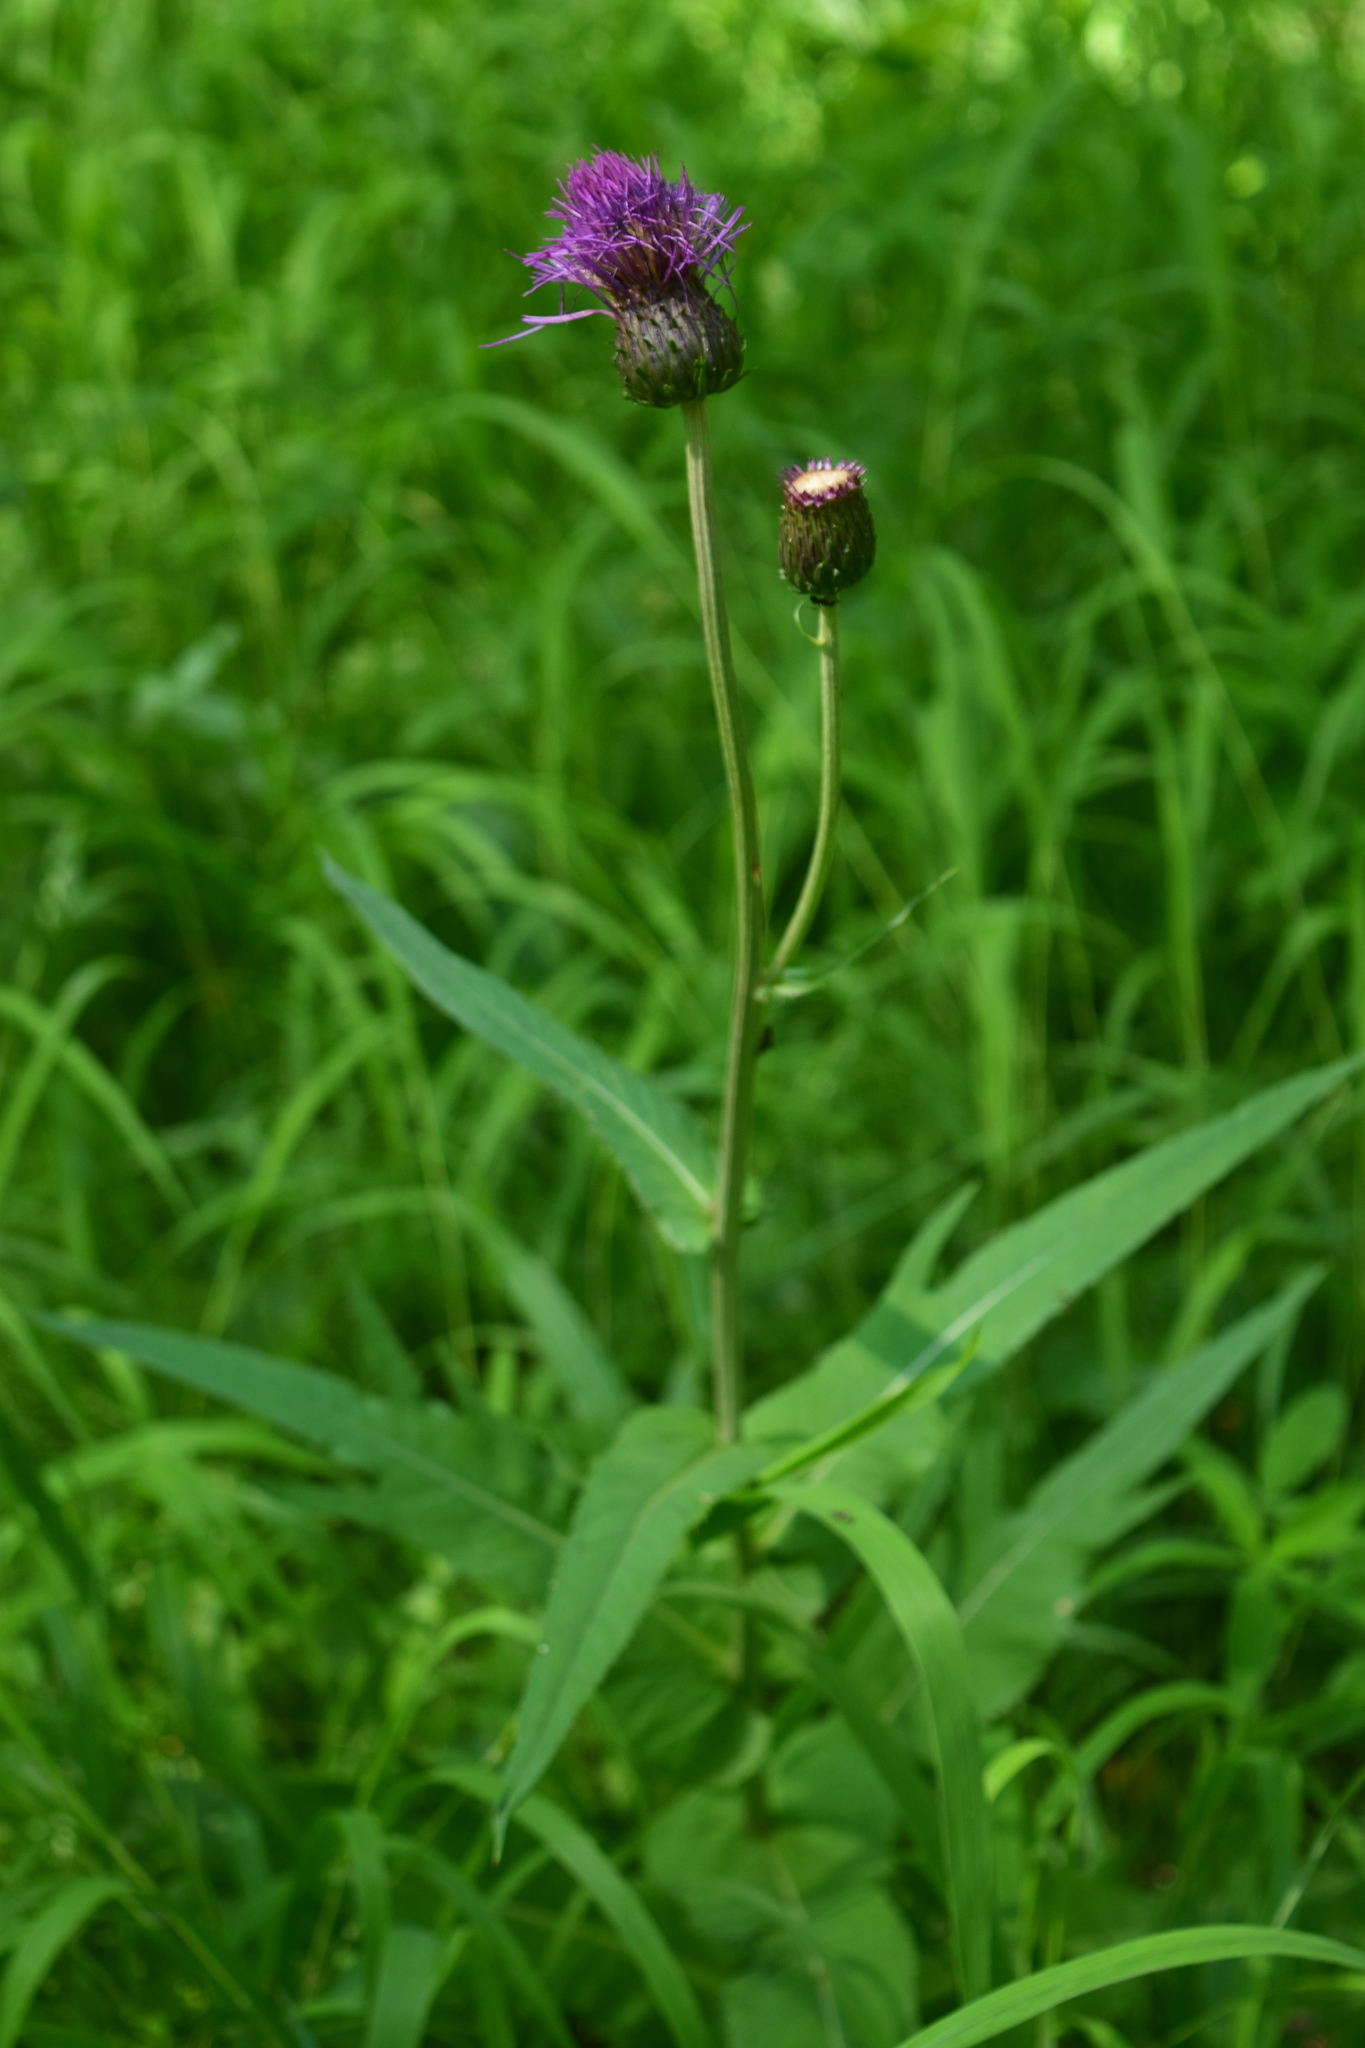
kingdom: Plantae
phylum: Tracheophyta
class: Magnoliopsida
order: Asterales
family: Asteraceae
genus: Cirsium
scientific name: Cirsium heterophyllum
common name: Melancholy thistle
